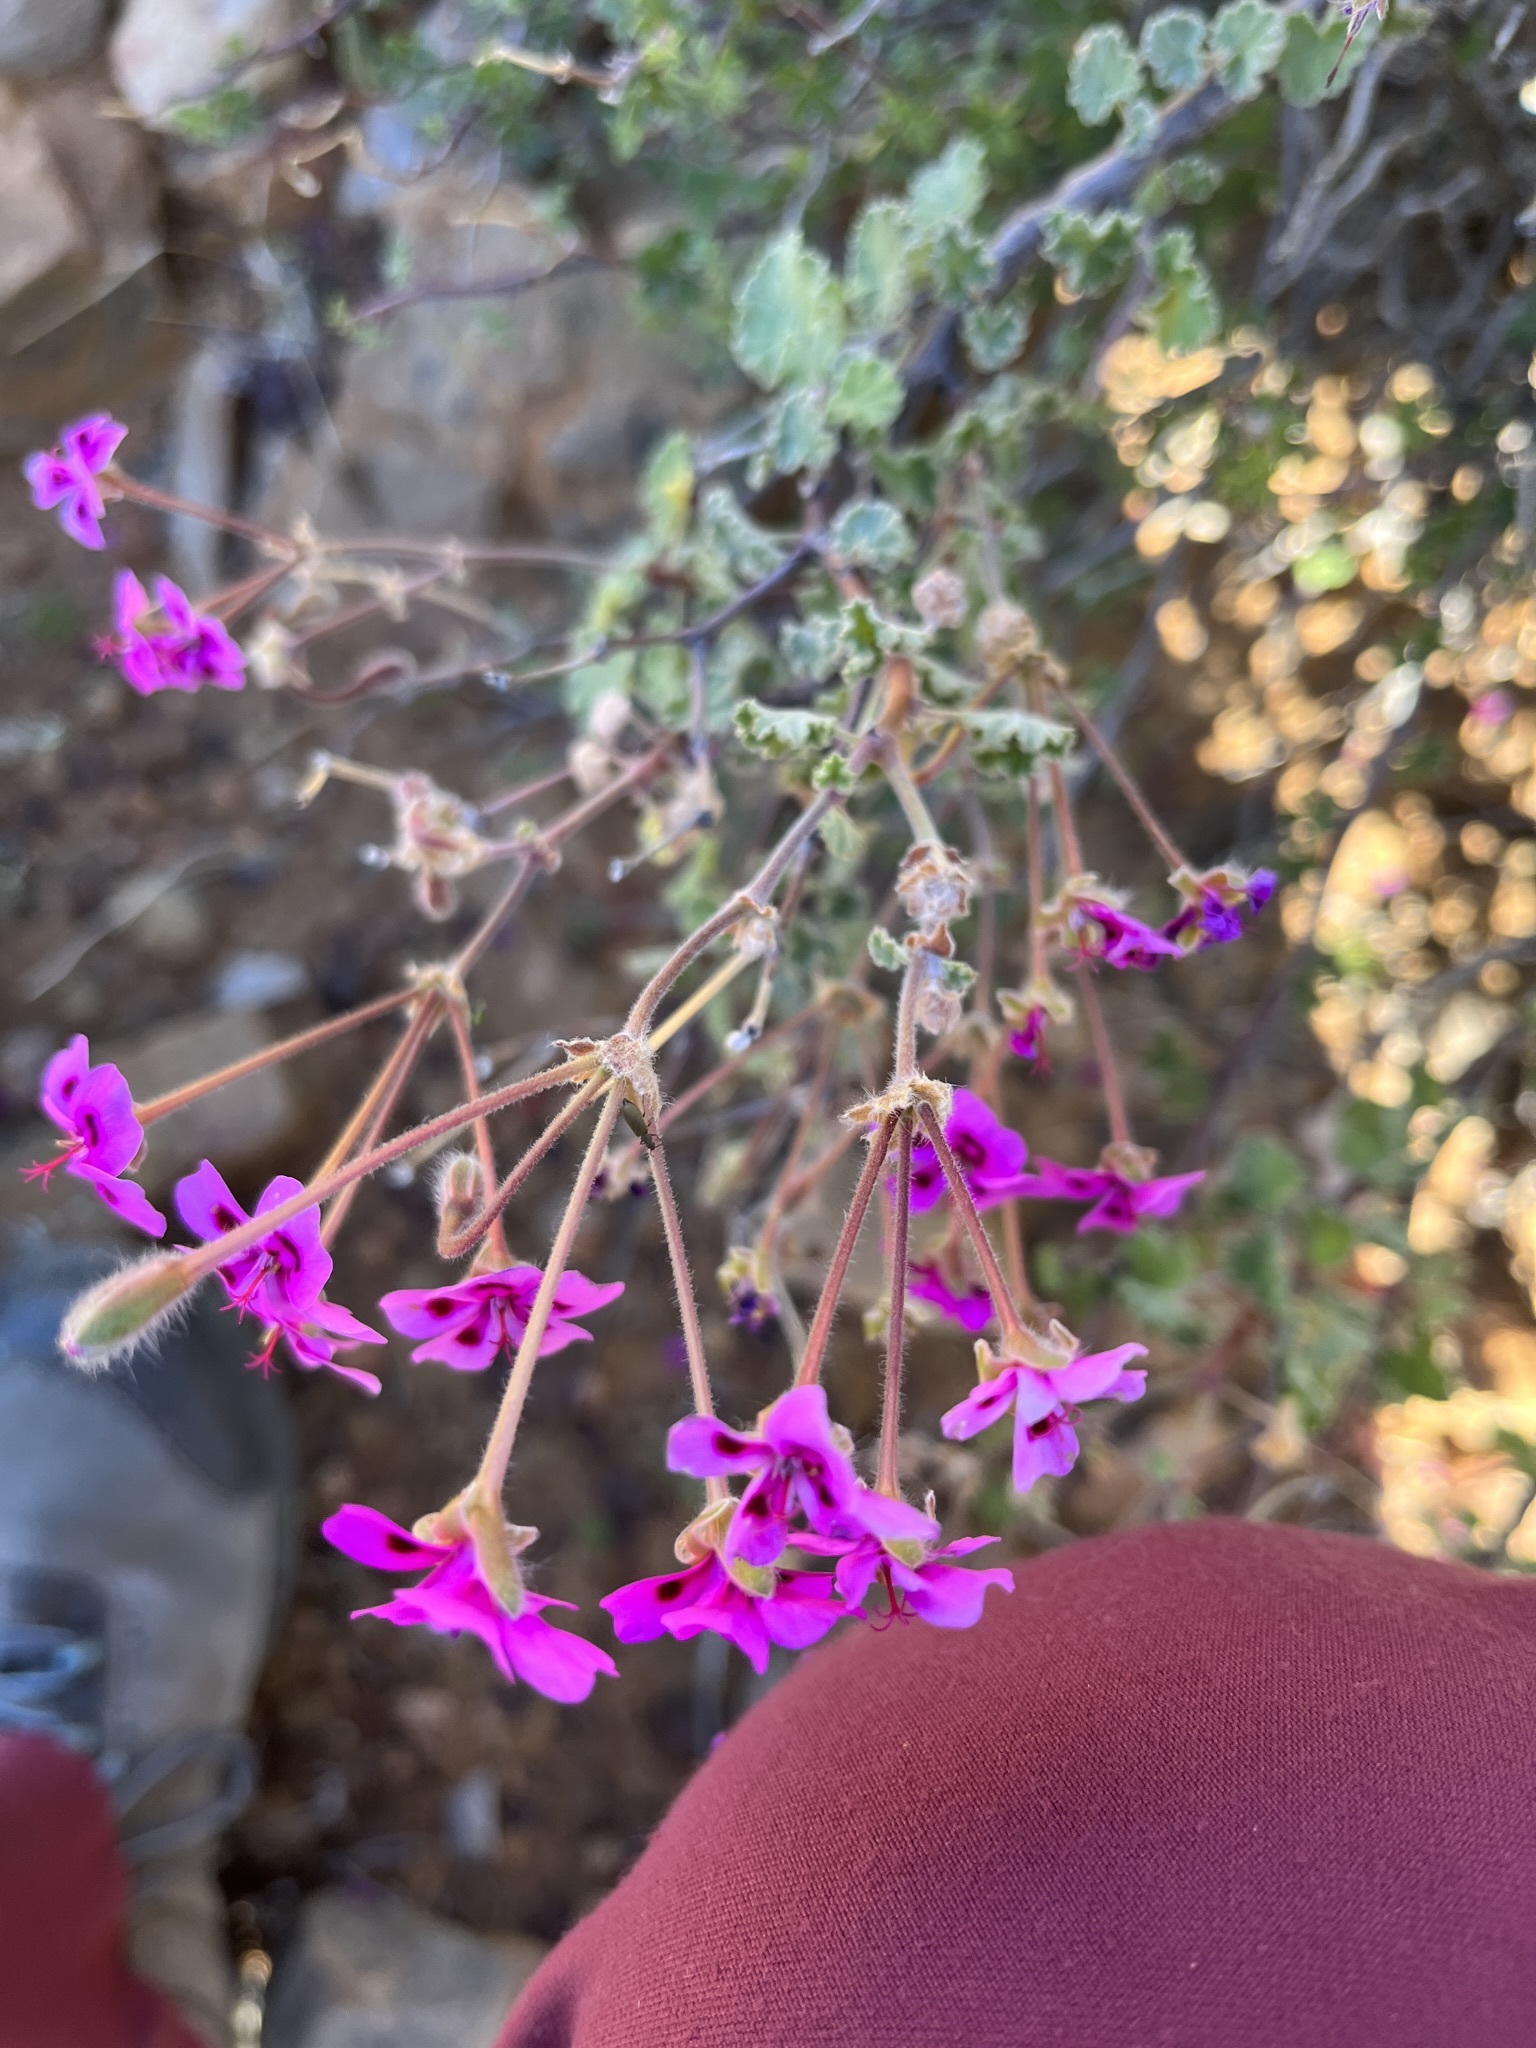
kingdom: Plantae
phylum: Tracheophyta
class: Magnoliopsida
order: Geraniales
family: Geraniaceae
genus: Pelargonium
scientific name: Pelargonium magenteum
